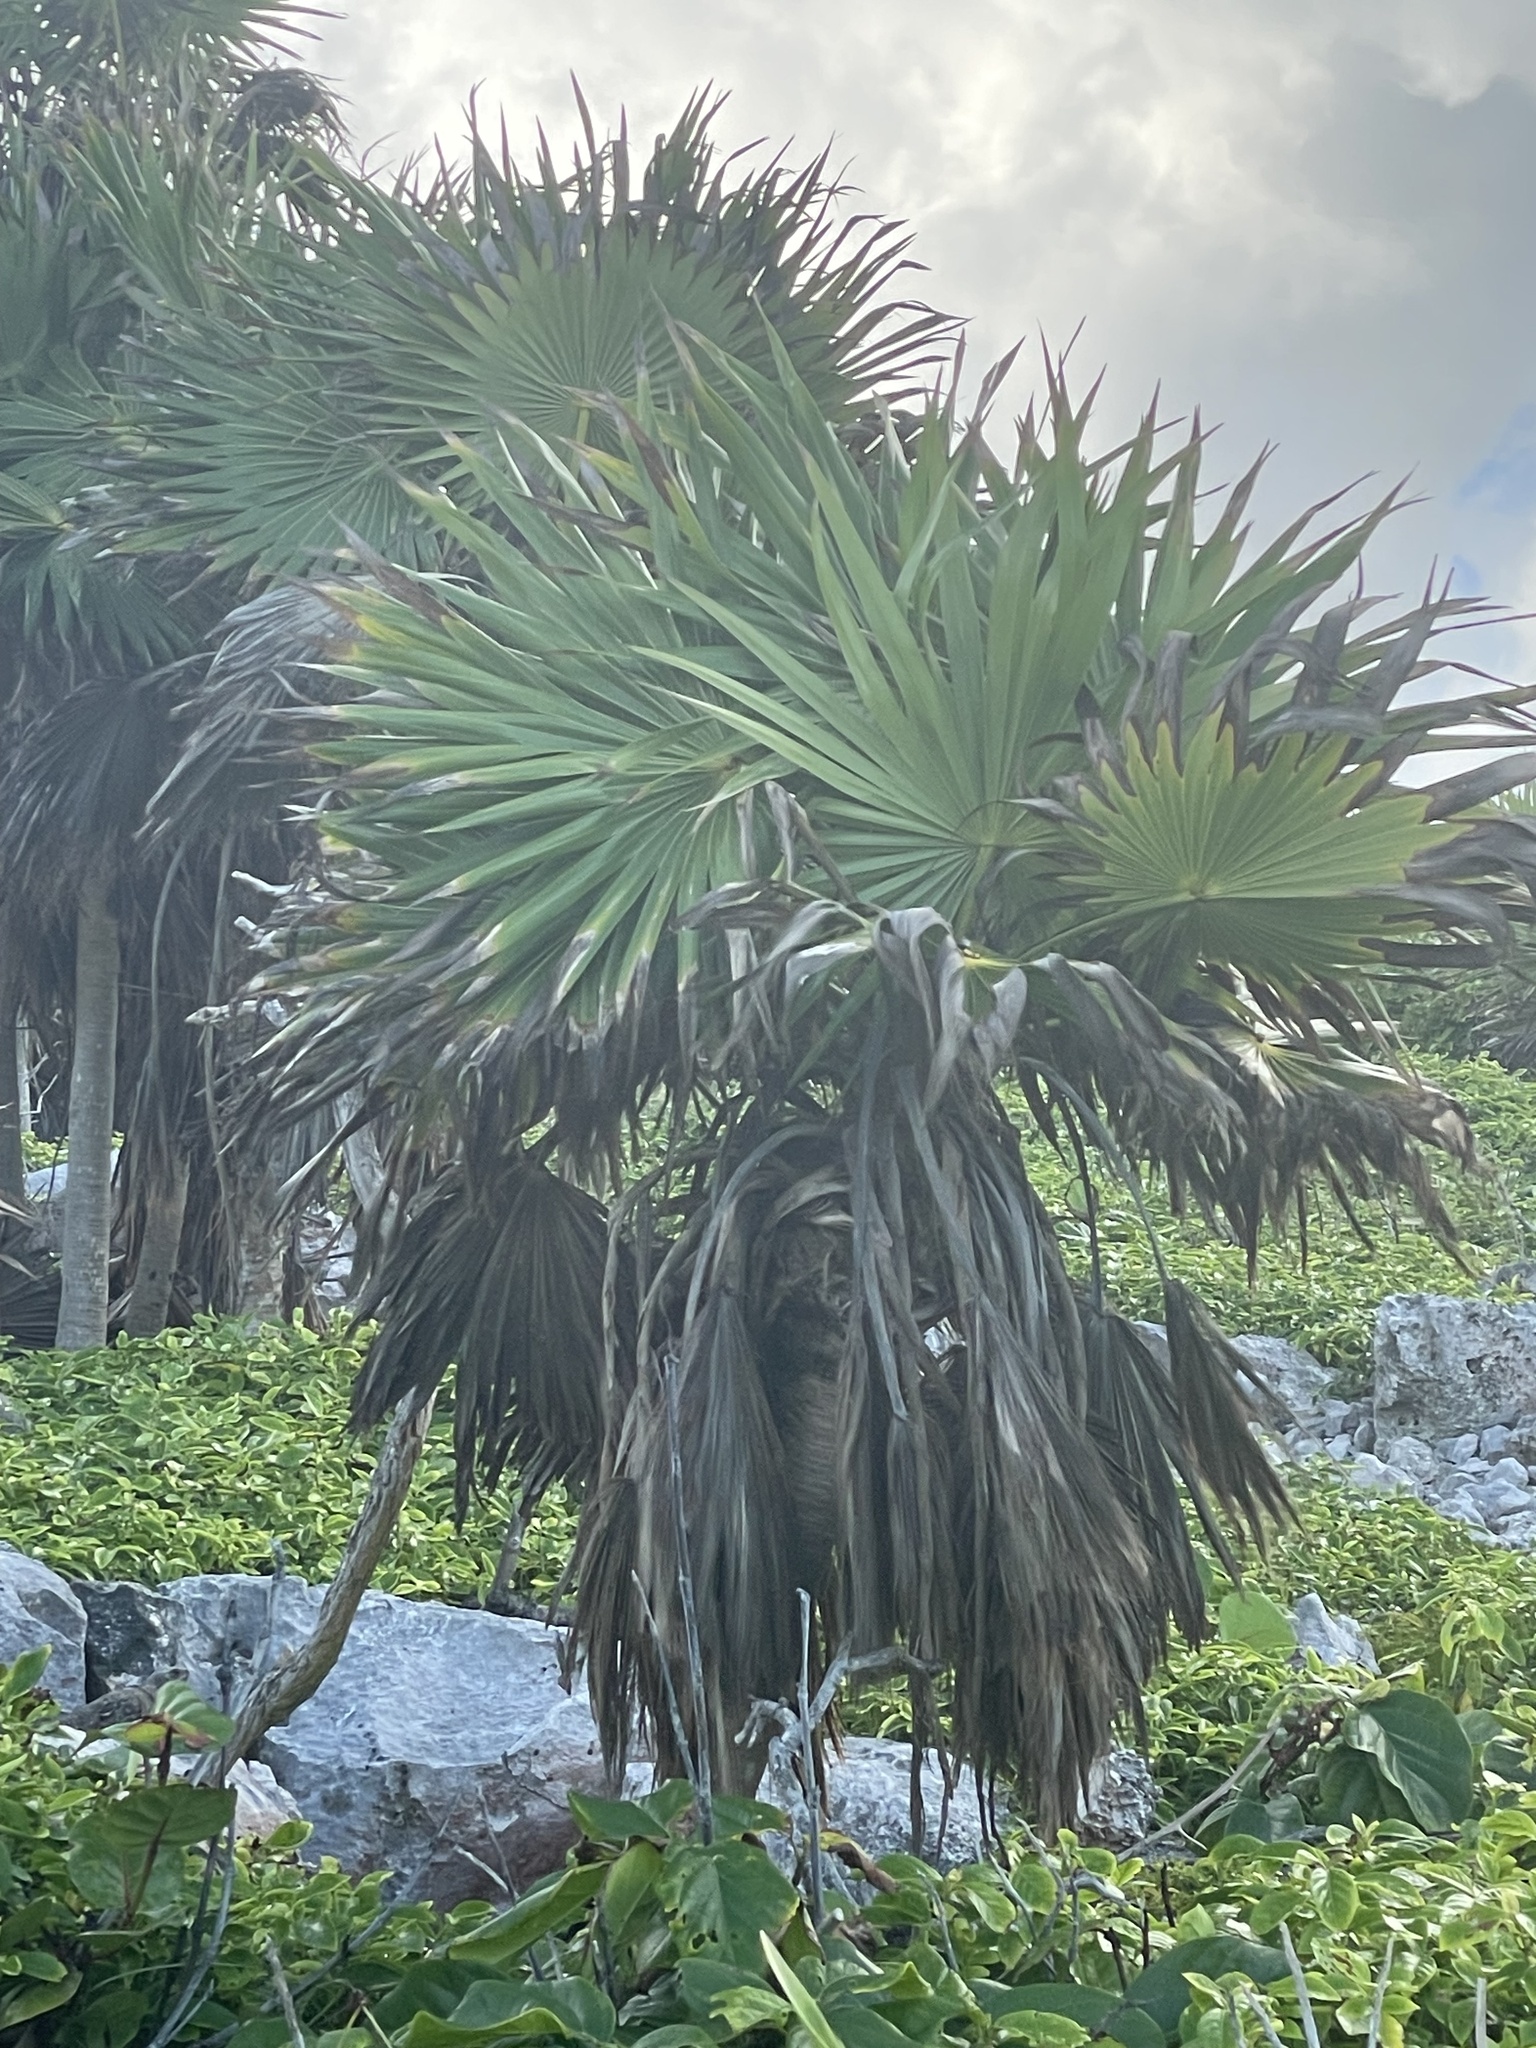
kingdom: Plantae
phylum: Tracheophyta
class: Liliopsida
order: Arecales
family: Arecaceae
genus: Thrinax
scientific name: Thrinax radiata
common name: Florida thatch
